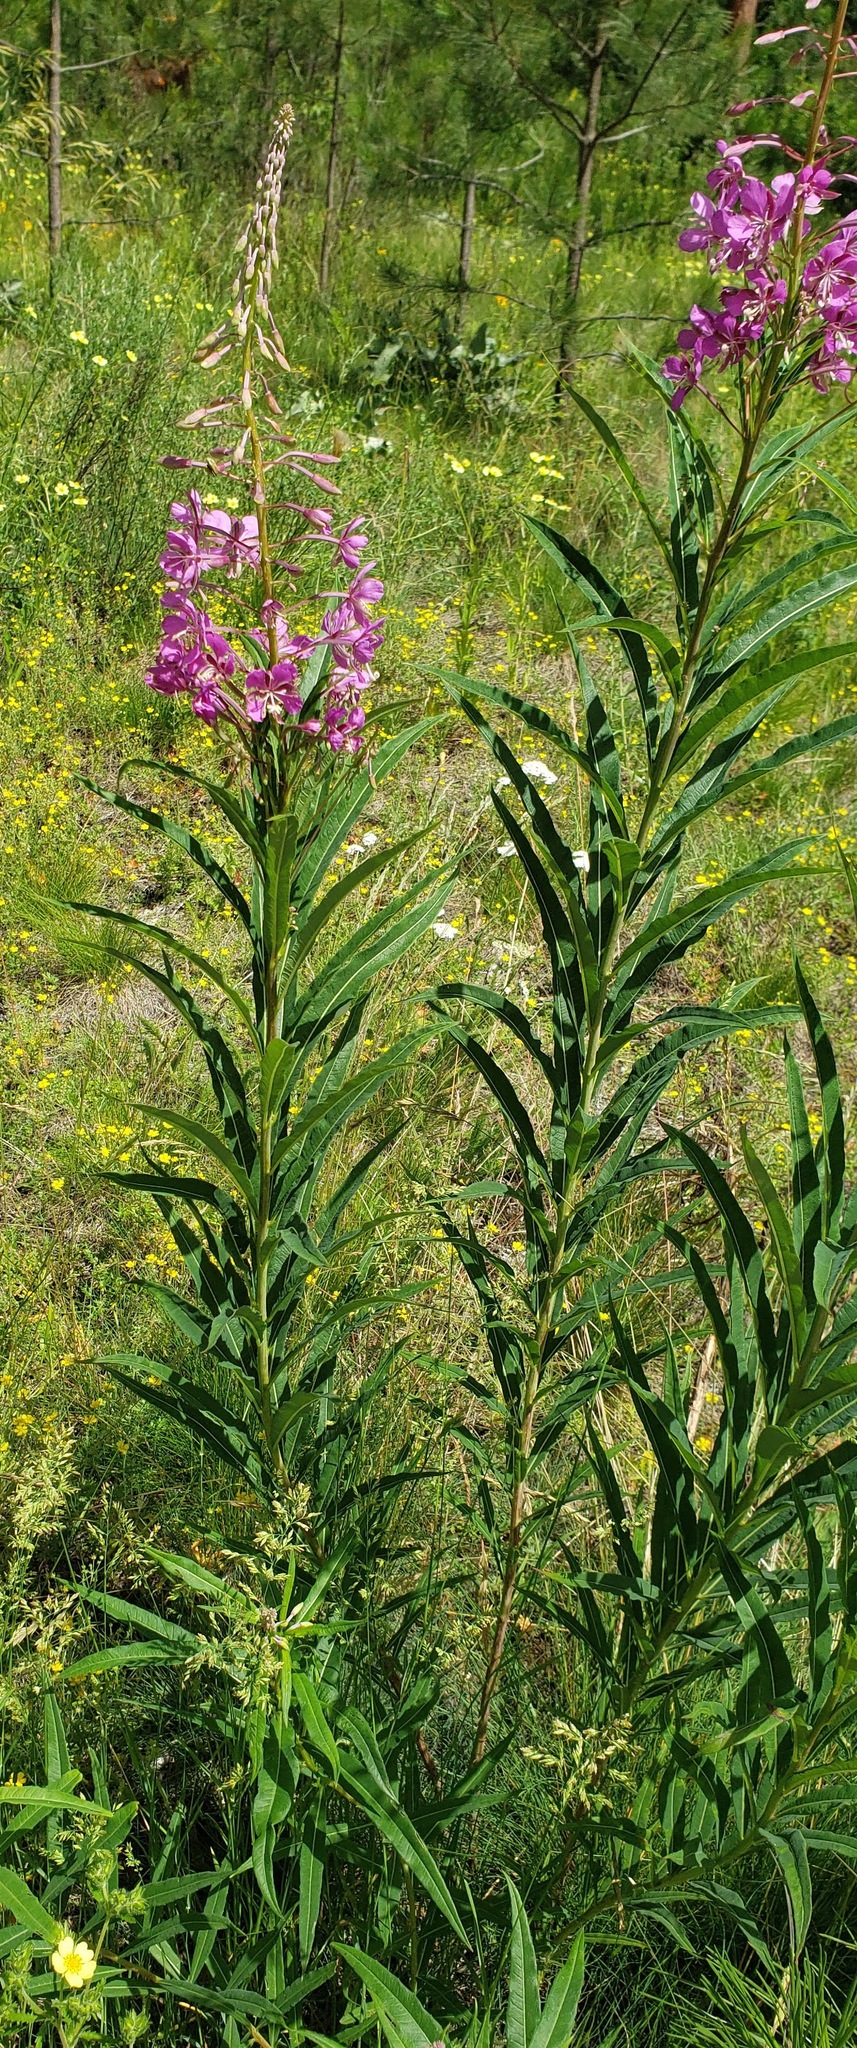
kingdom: Plantae
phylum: Tracheophyta
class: Magnoliopsida
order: Myrtales
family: Onagraceae
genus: Chamaenerion
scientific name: Chamaenerion angustifolium
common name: Fireweed
